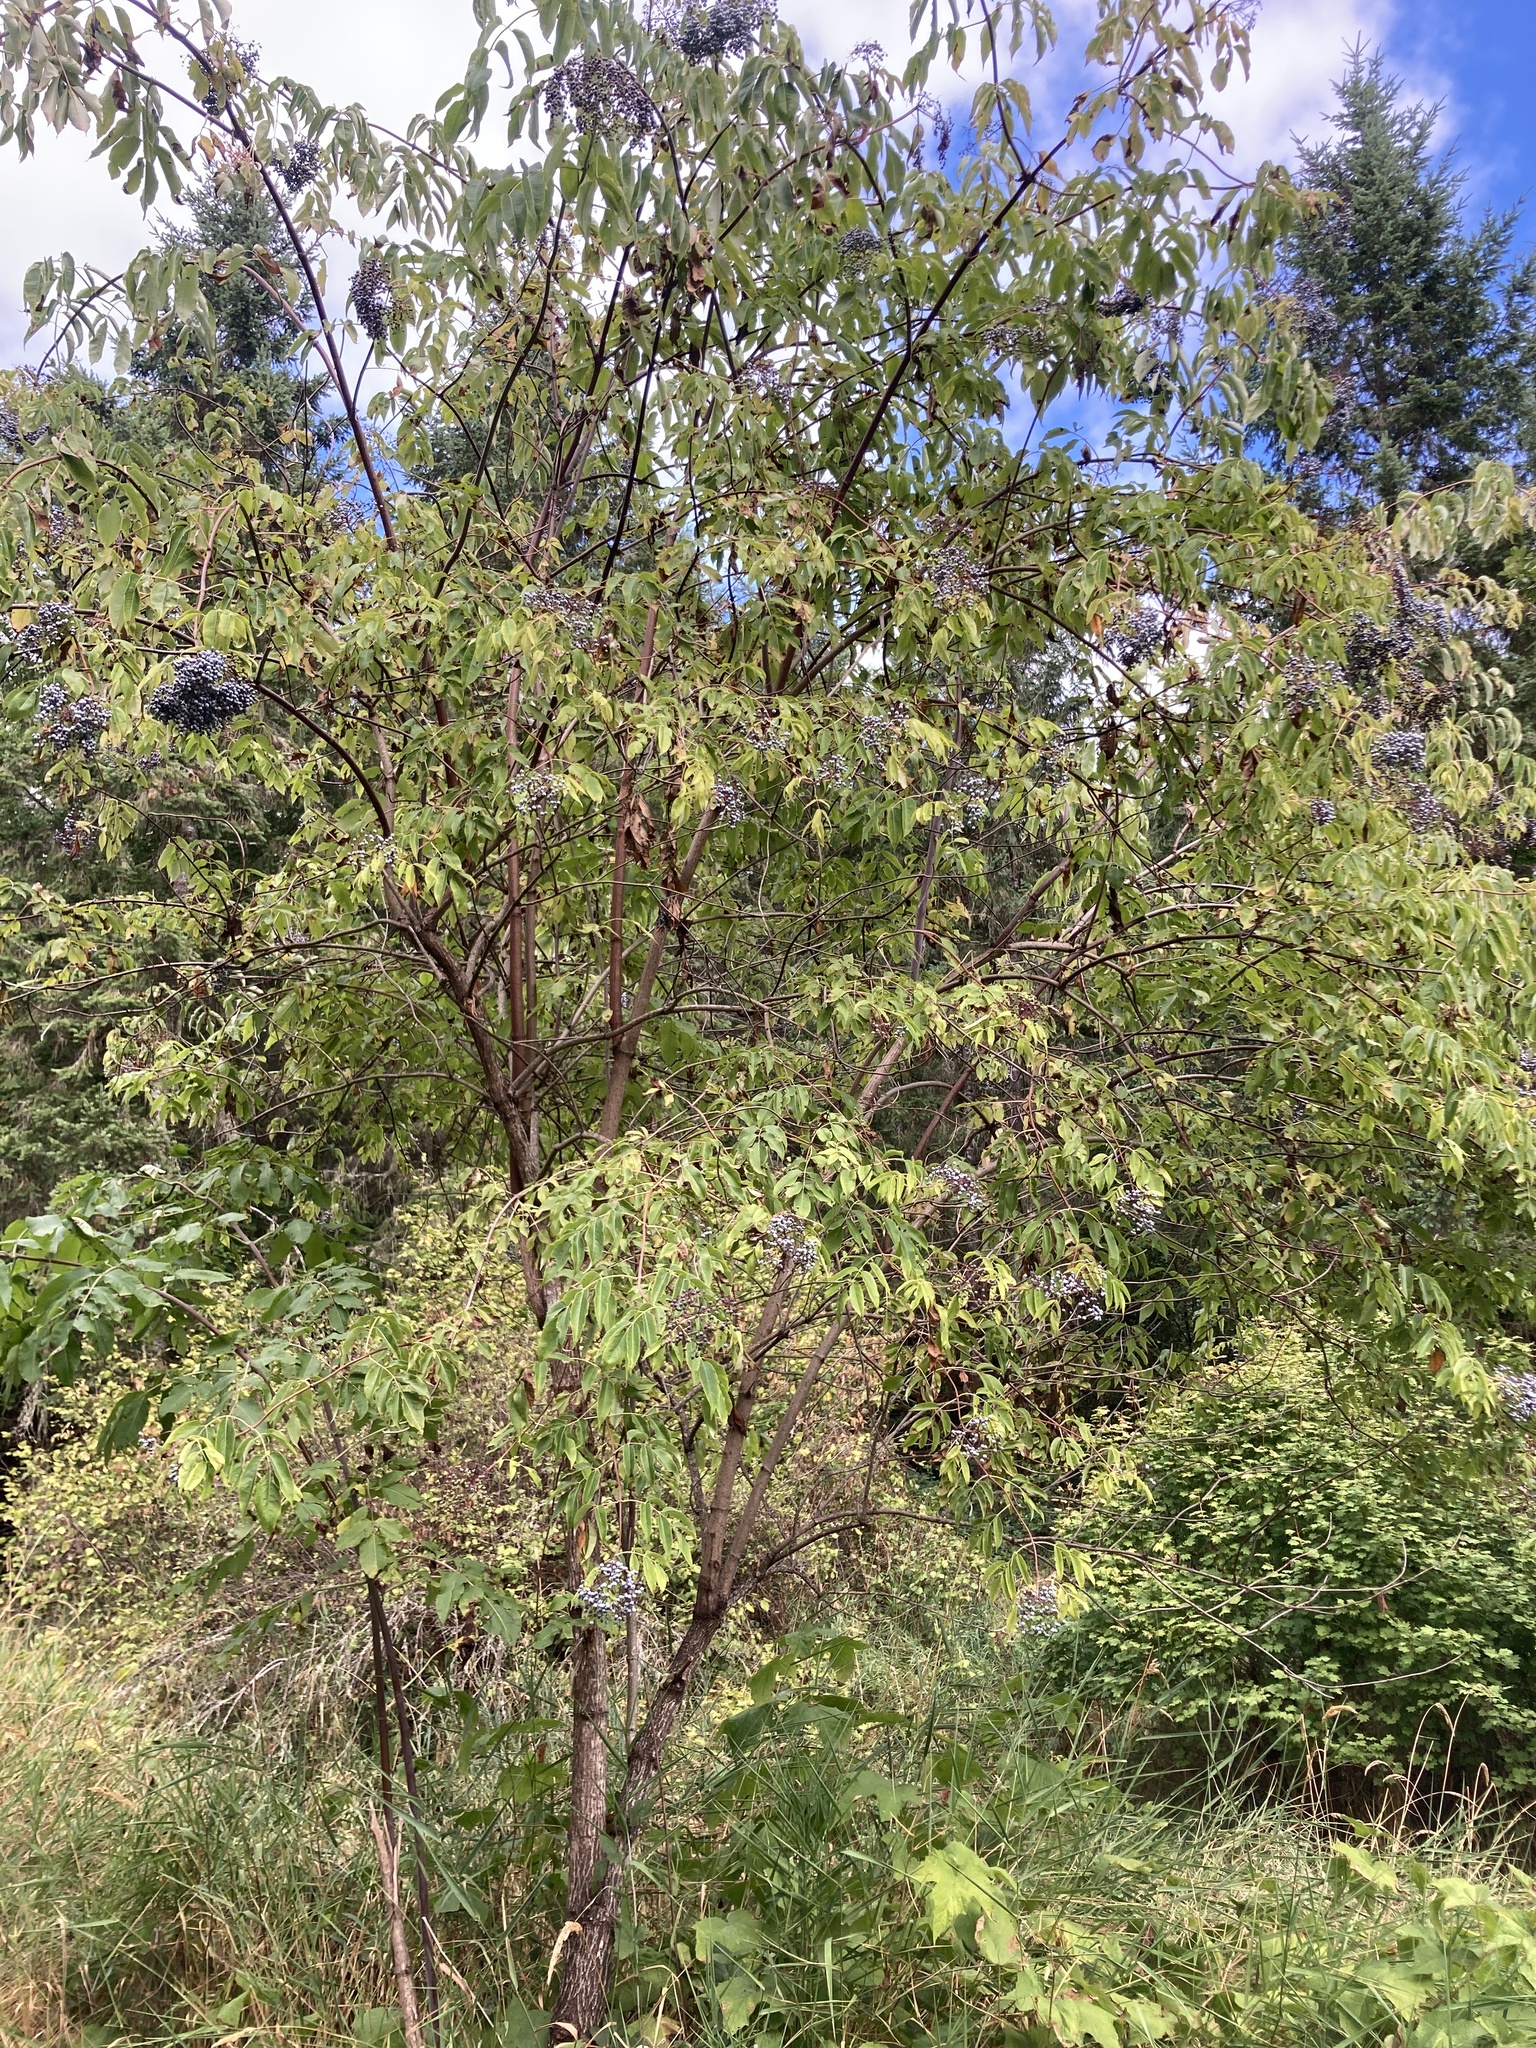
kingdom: Plantae
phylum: Tracheophyta
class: Magnoliopsida
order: Dipsacales
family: Viburnaceae
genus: Sambucus
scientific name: Sambucus cerulea
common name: Blue elder
